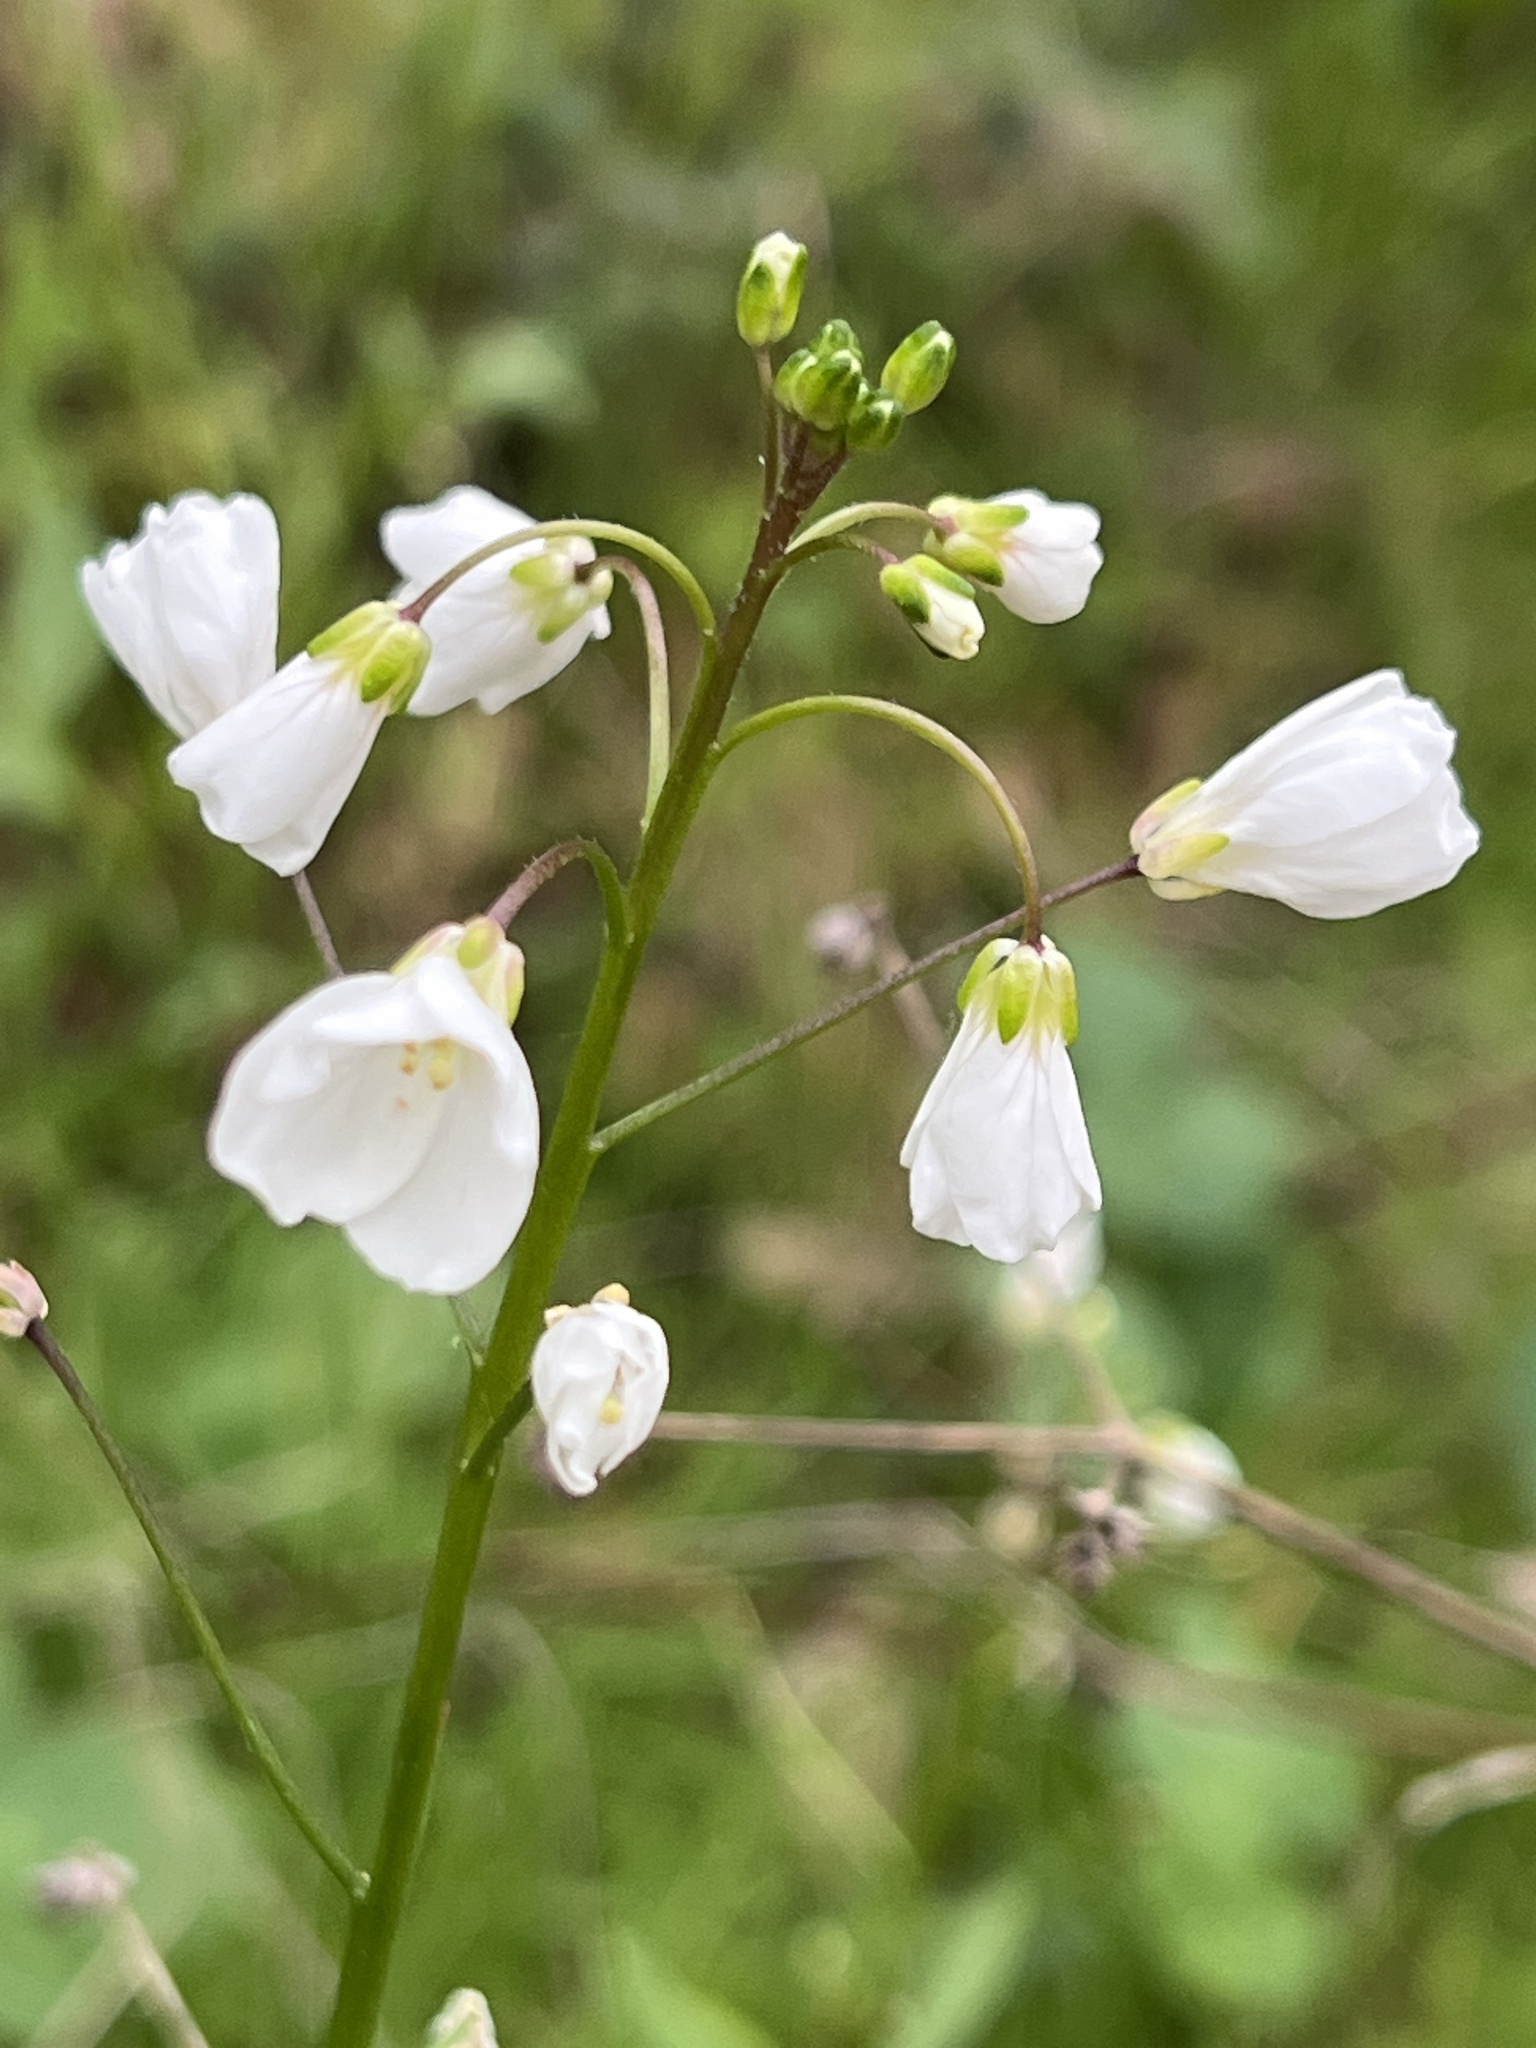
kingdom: Plantae
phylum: Tracheophyta
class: Magnoliopsida
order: Brassicales
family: Brassicaceae
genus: Cardamine
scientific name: Cardamine californica
